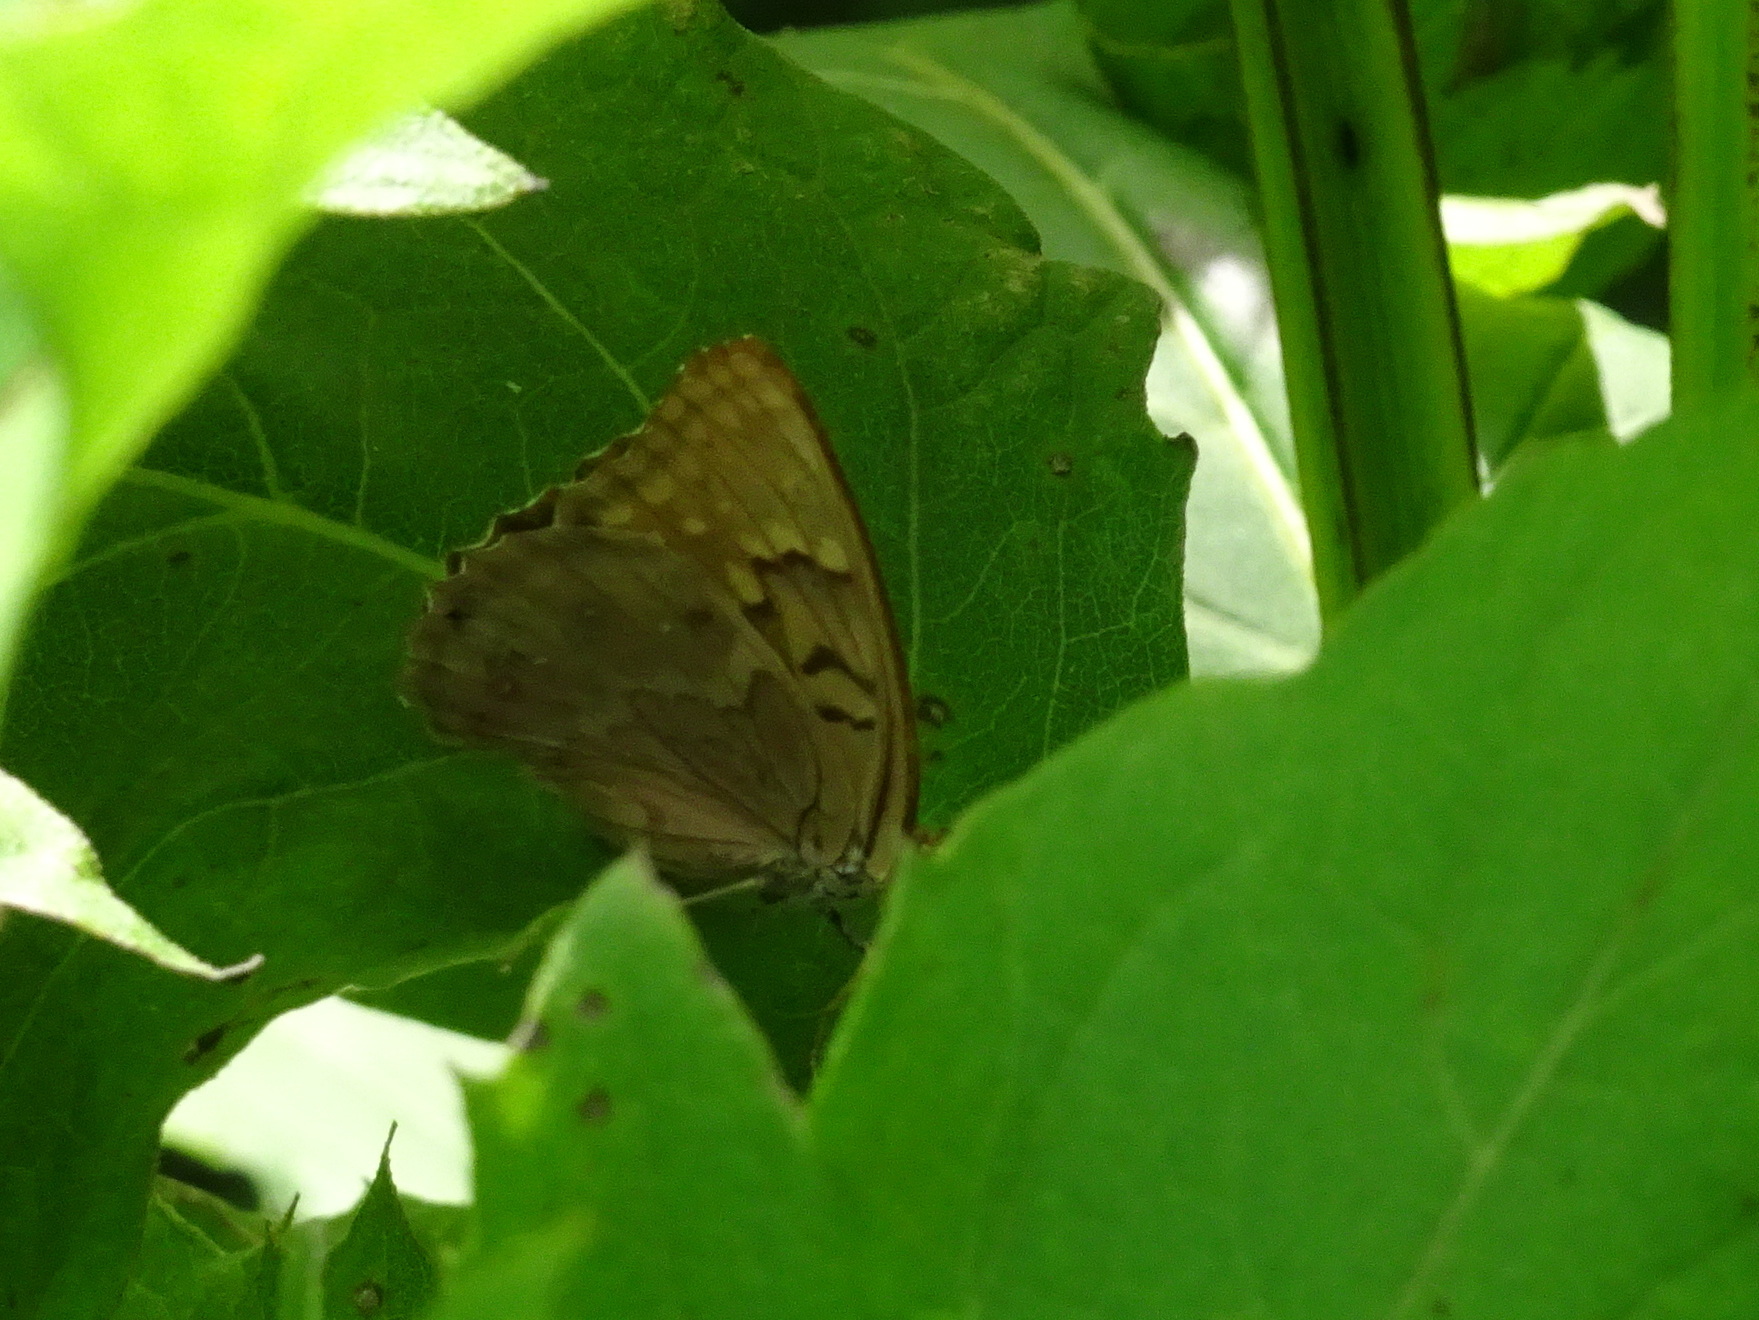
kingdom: Animalia
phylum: Arthropoda
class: Insecta
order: Lepidoptera
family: Nymphalidae
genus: Asterocampa
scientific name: Asterocampa clyton
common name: Tawny emperor
